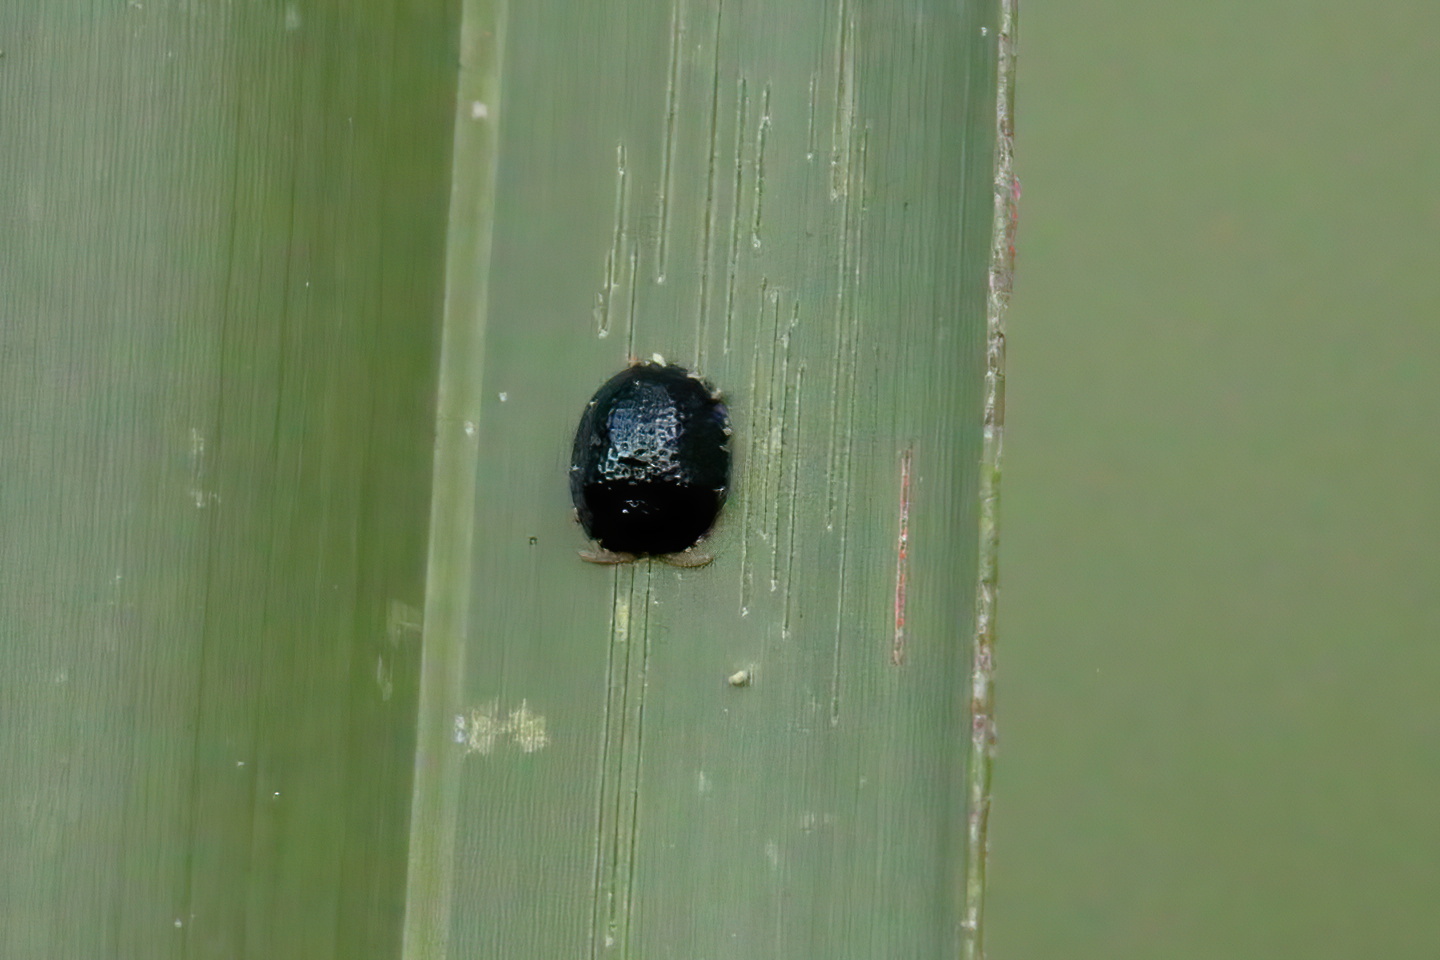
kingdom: Animalia
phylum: Arthropoda
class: Insecta
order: Coleoptera
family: Chrysomelidae
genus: Hemisphaerota
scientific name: Hemisphaerota cyanea
